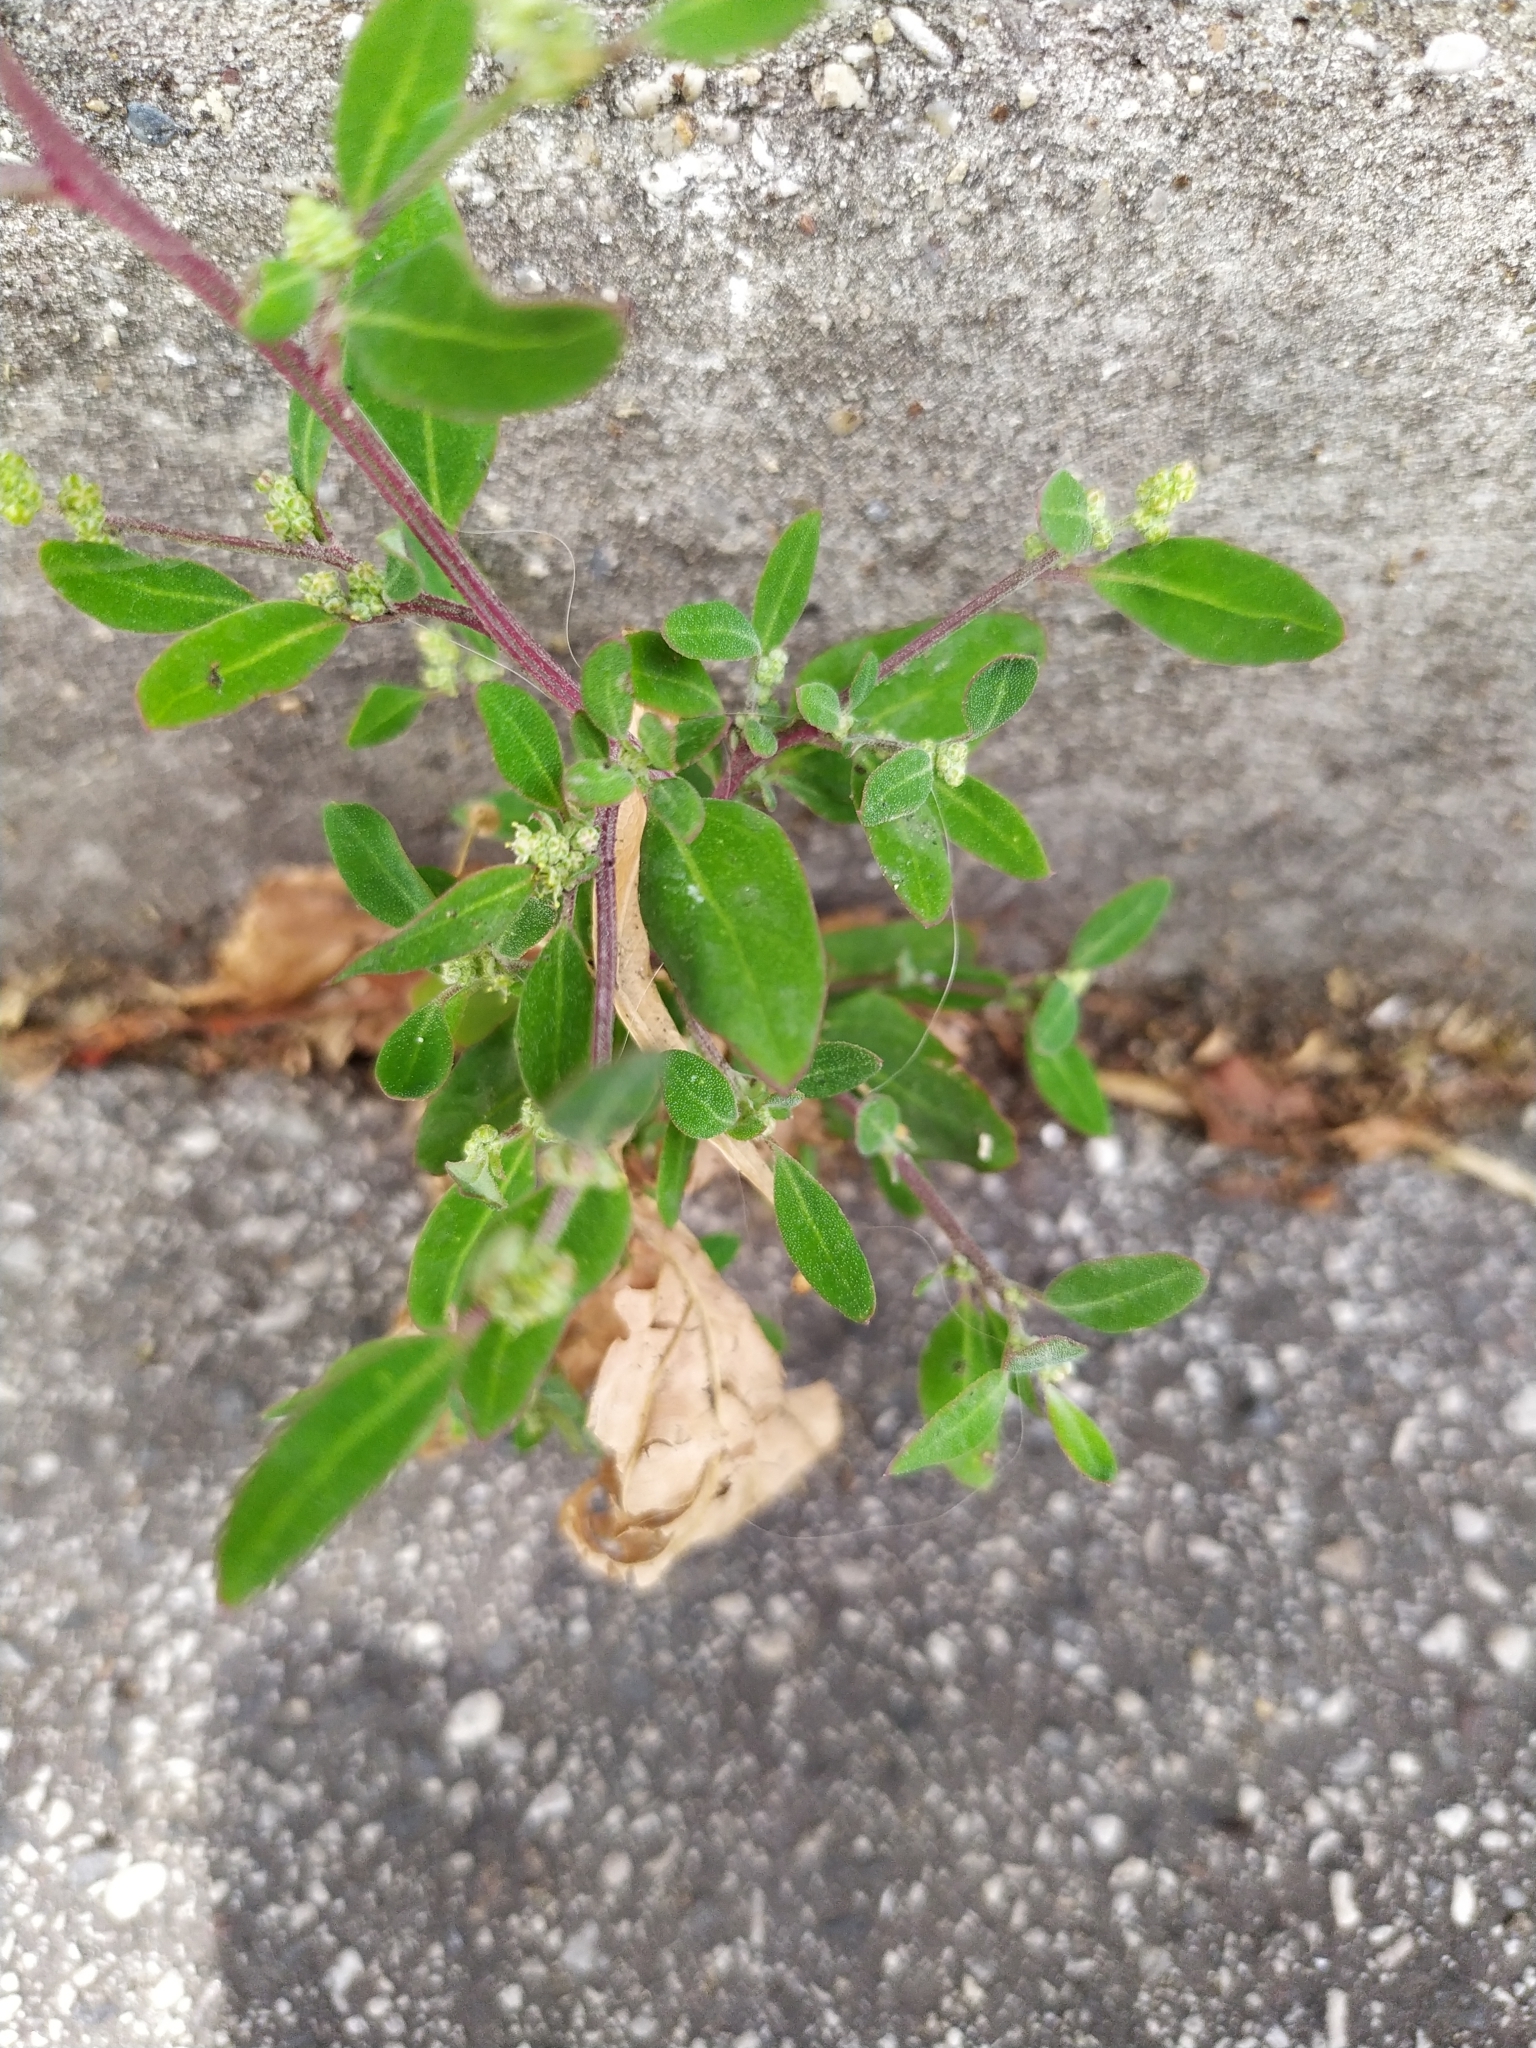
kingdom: Plantae
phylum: Tracheophyta
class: Magnoliopsida
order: Caryophyllales
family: Amaranthaceae
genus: Chenopodium
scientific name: Chenopodium betaceum
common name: Striped goosefoot
